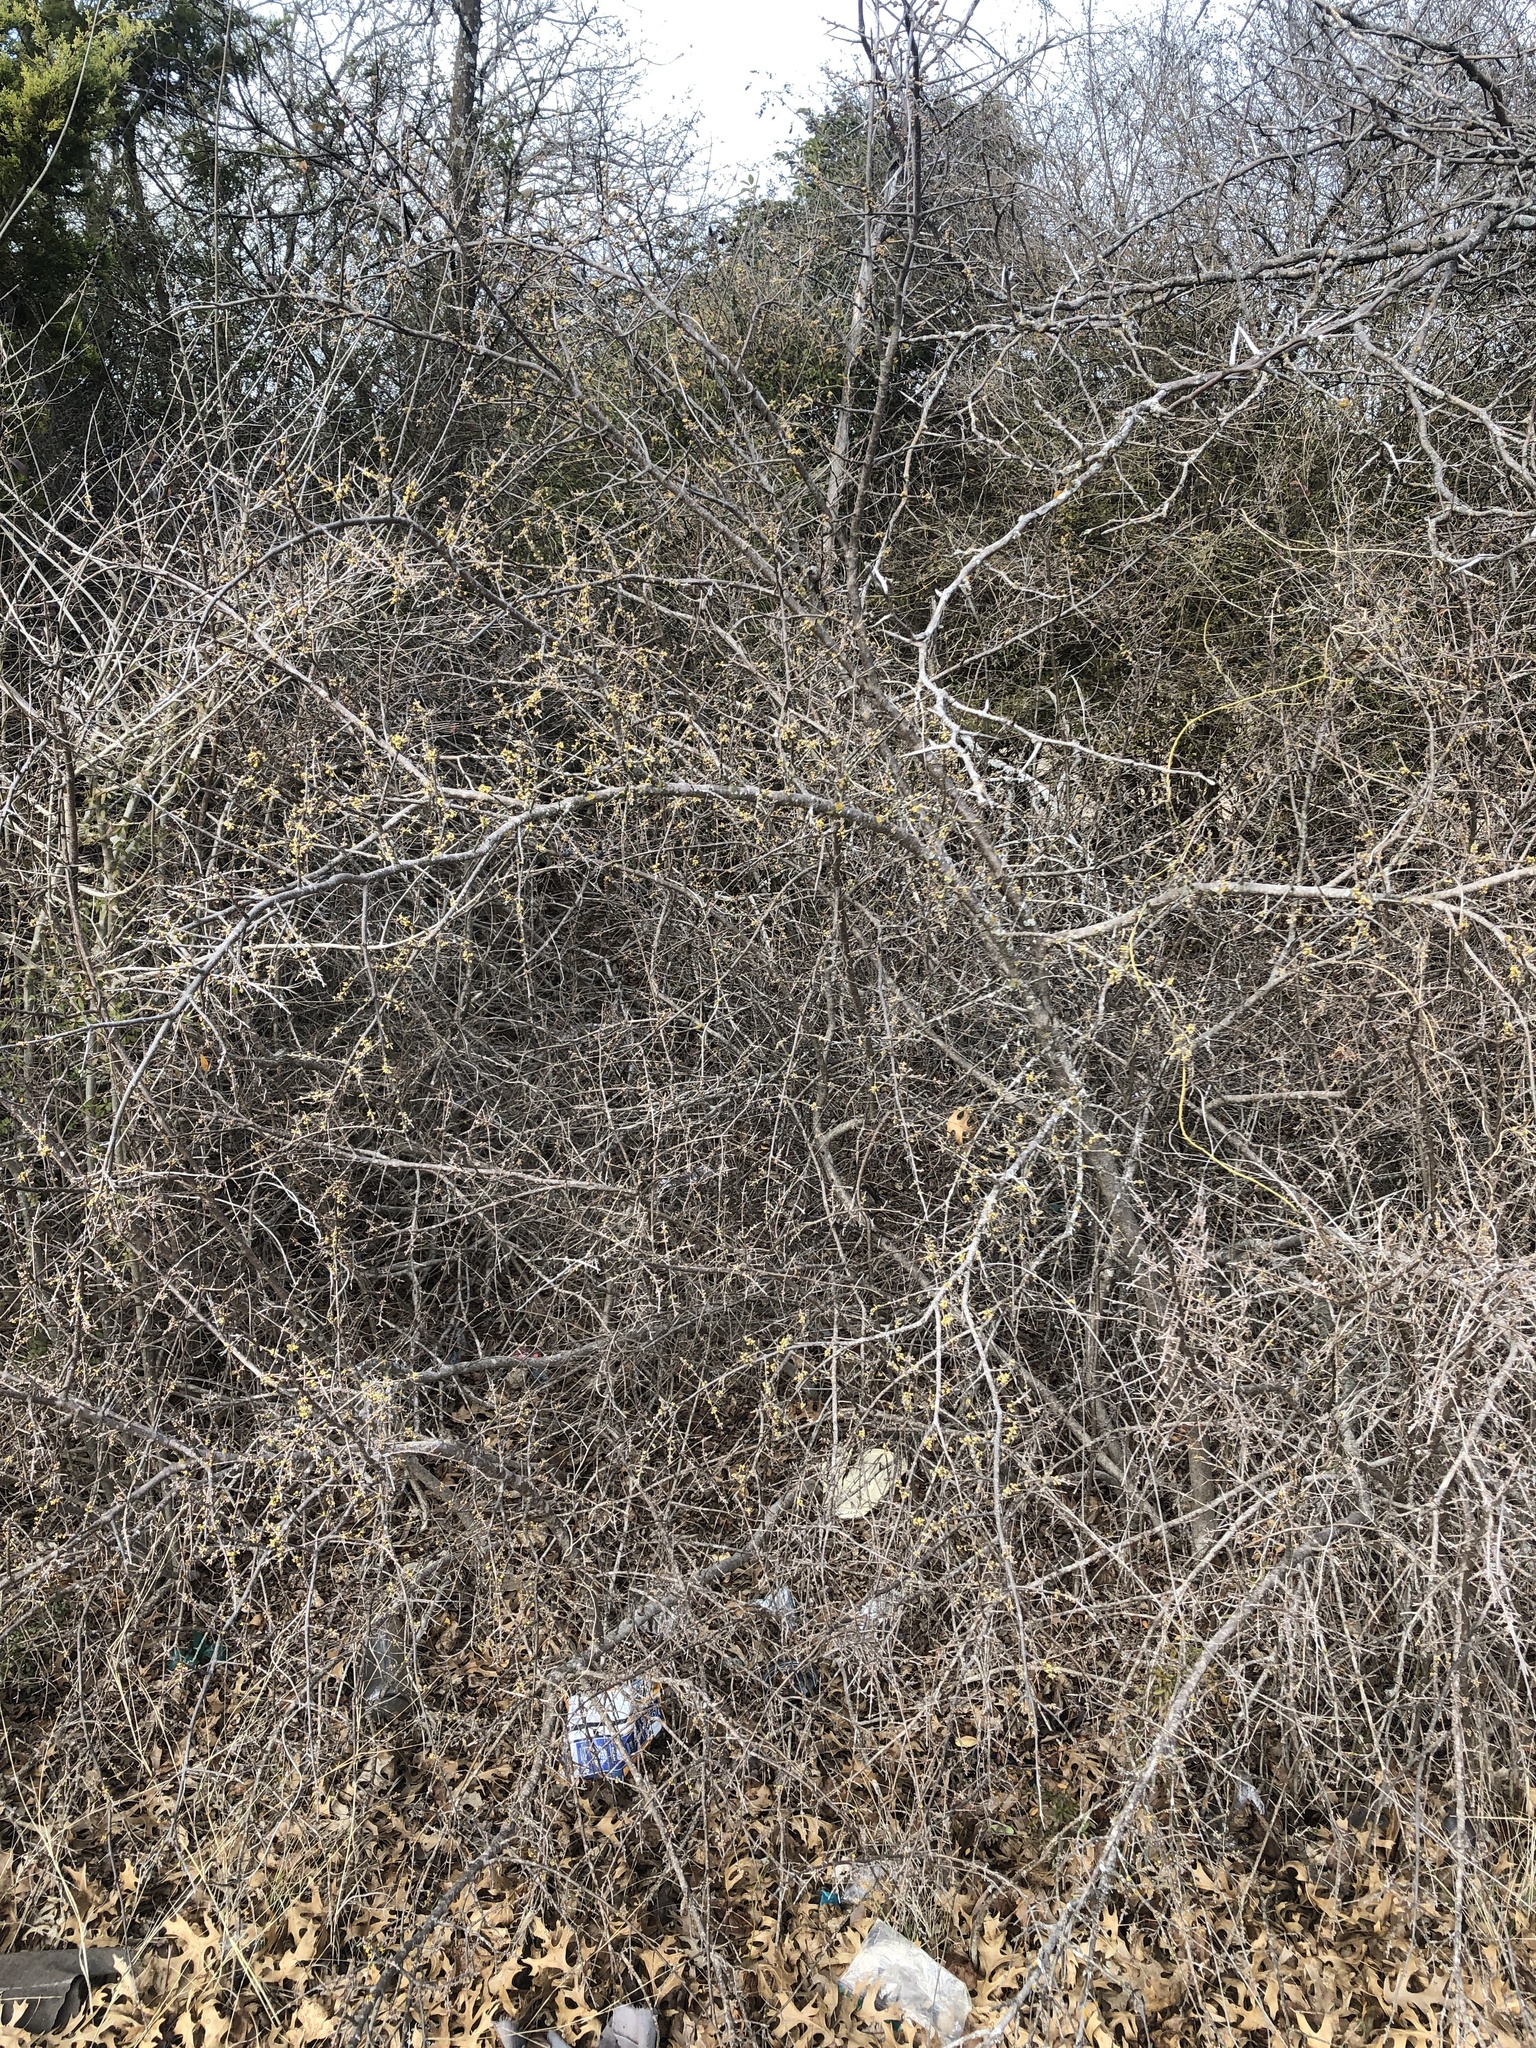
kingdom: Plantae
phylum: Tracheophyta
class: Magnoliopsida
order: Lamiales
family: Oleaceae
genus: Forestiera
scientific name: Forestiera pubescens
